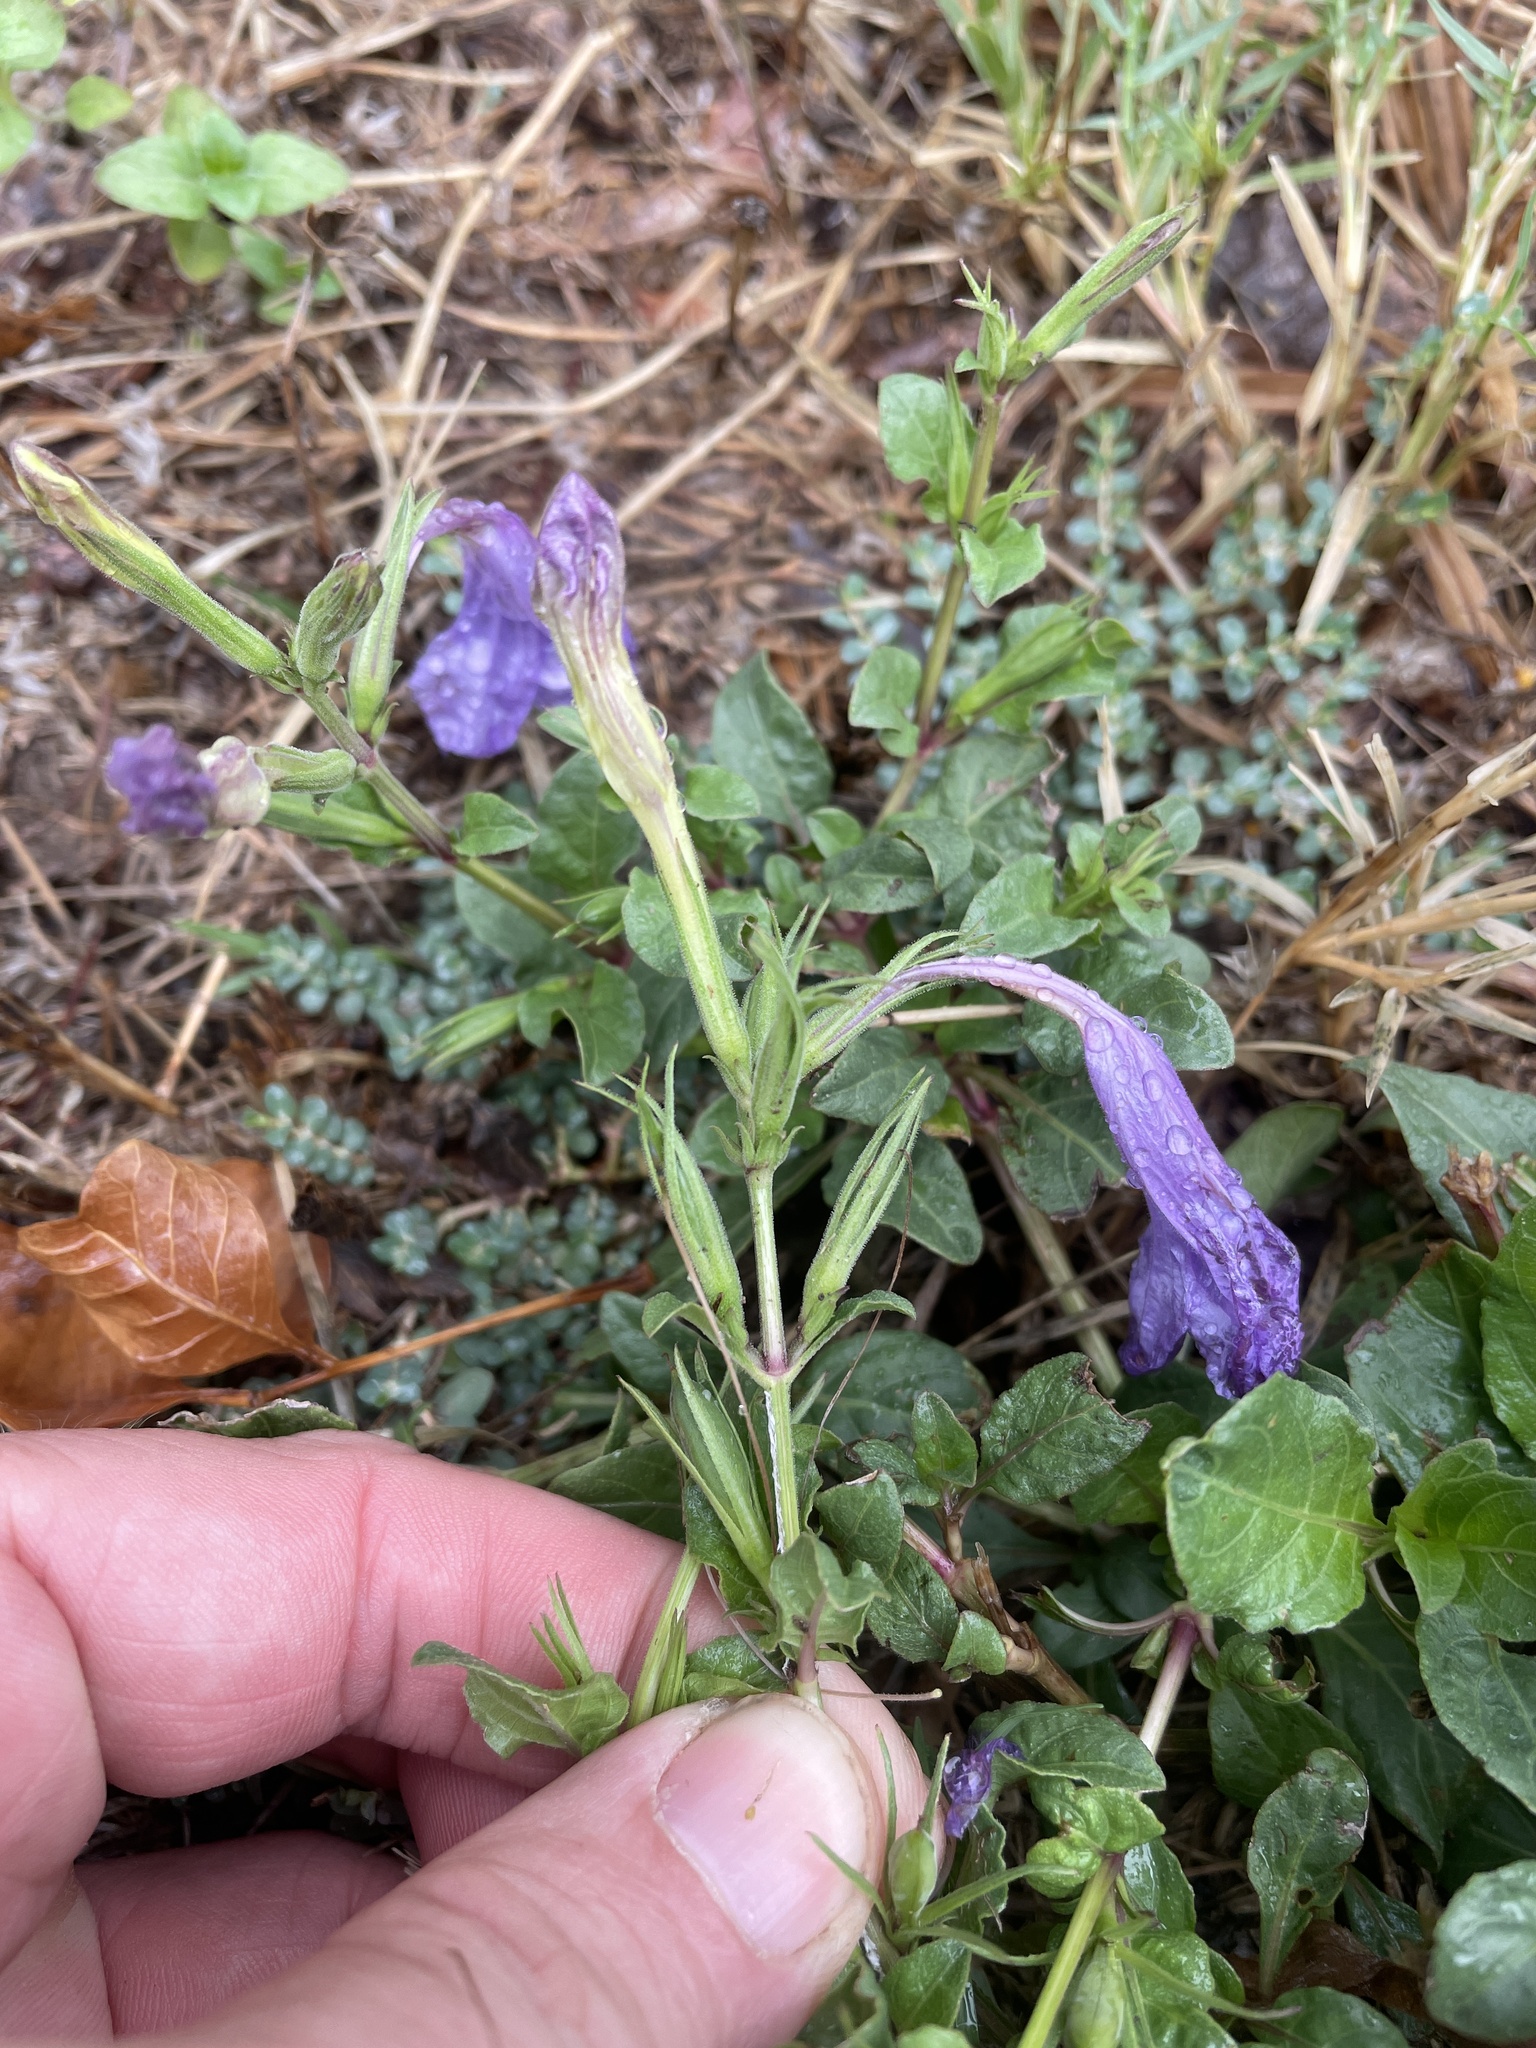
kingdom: Plantae
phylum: Tracheophyta
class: Magnoliopsida
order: Lamiales
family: Acanthaceae
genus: Ruellia
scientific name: Ruellia ciliatiflora
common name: Hairyflower wild petunia
